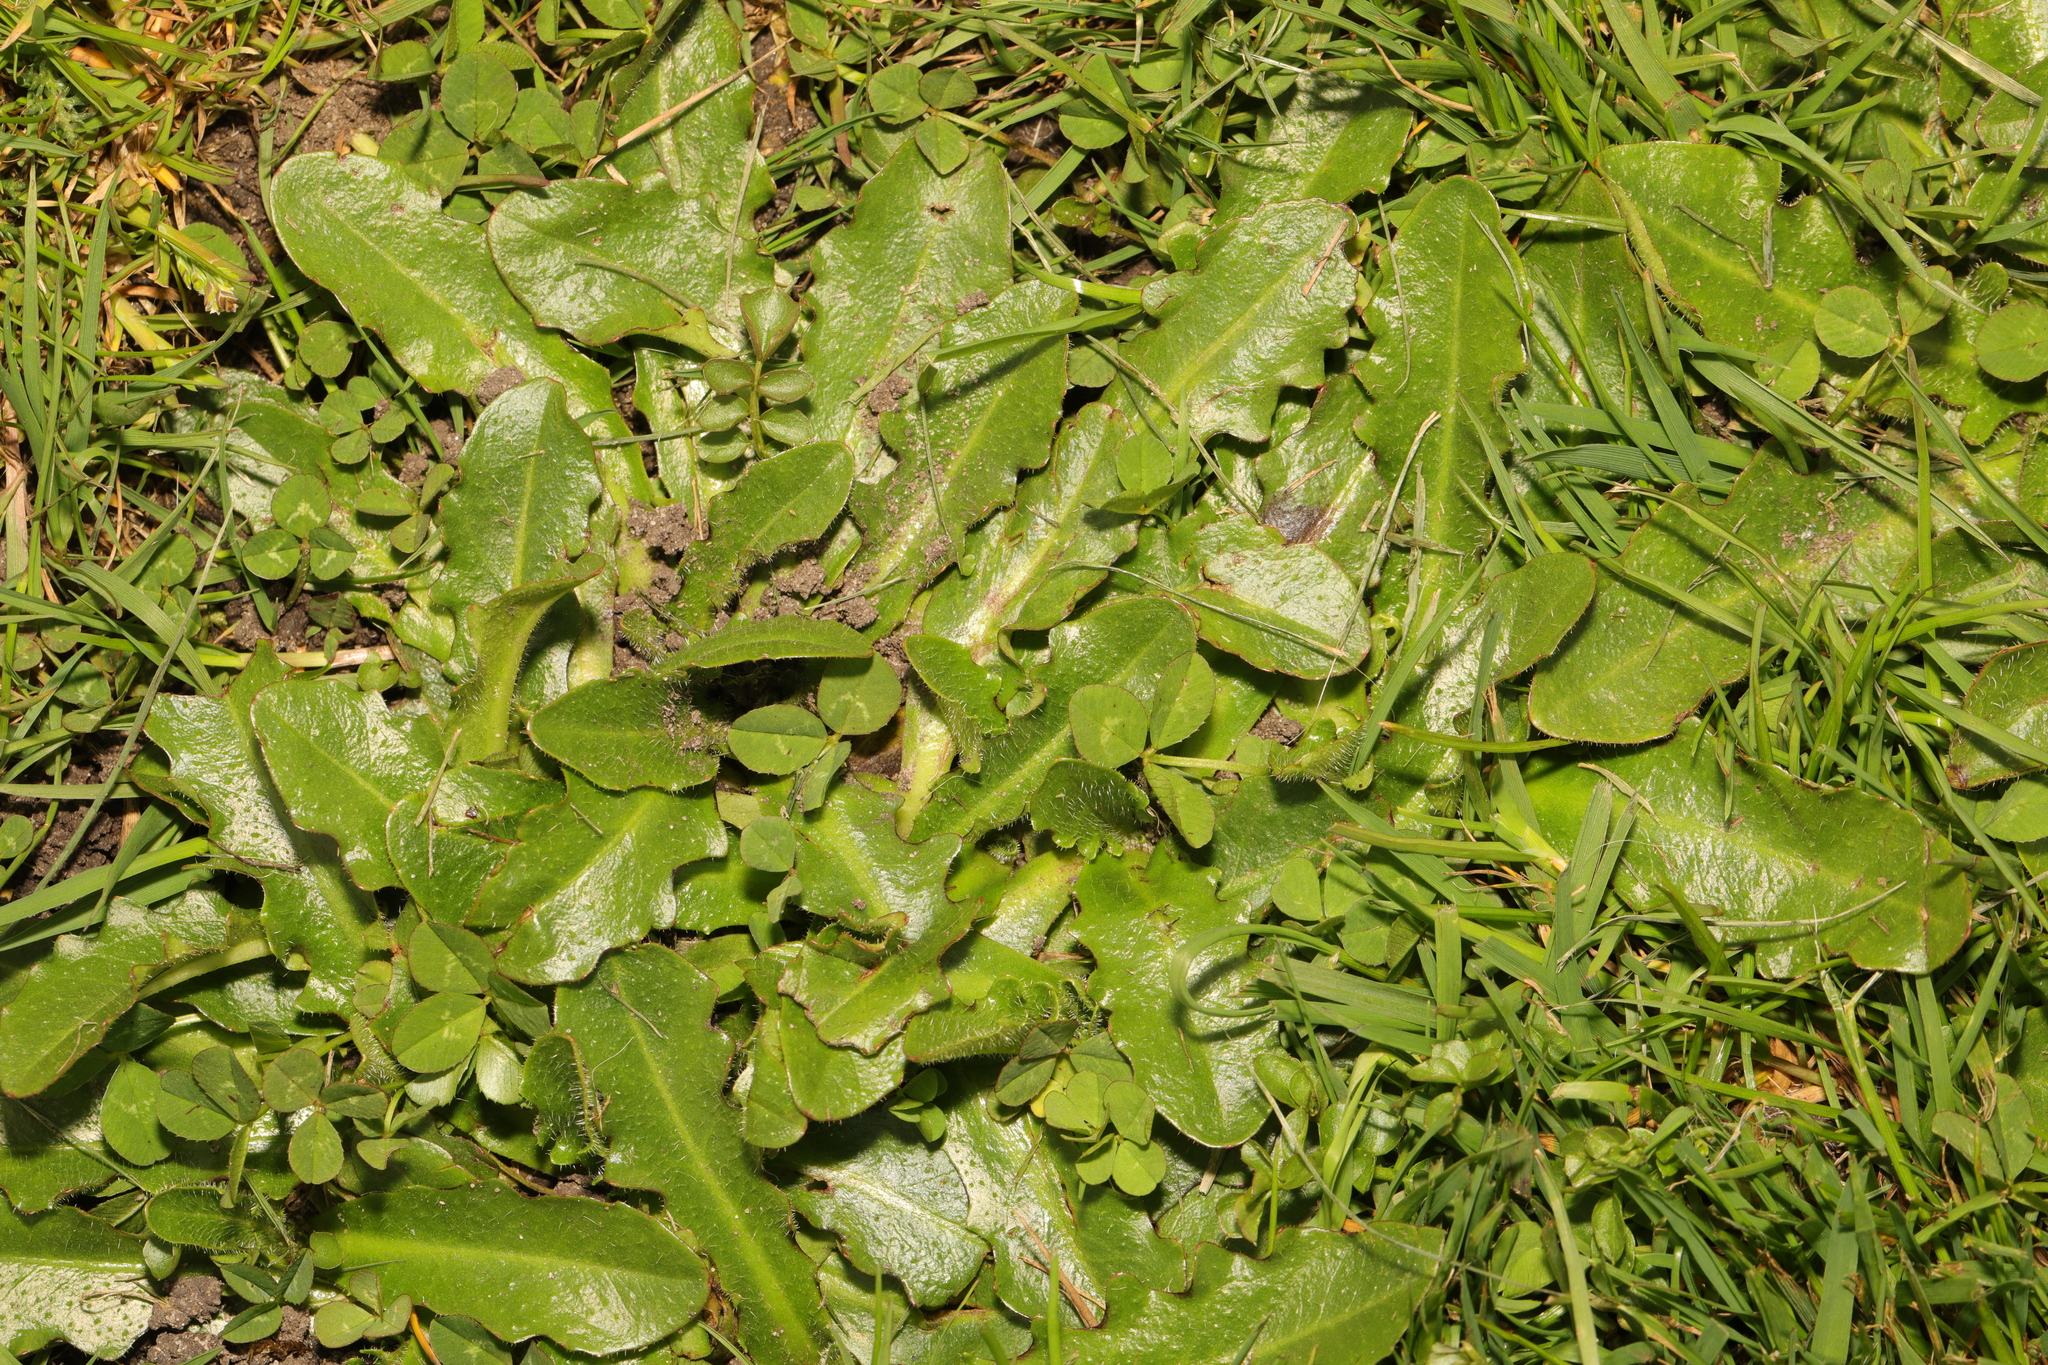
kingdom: Plantae
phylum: Tracheophyta
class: Magnoliopsida
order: Asterales
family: Asteraceae
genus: Hypochaeris
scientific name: Hypochaeris radicata
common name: Flatweed
